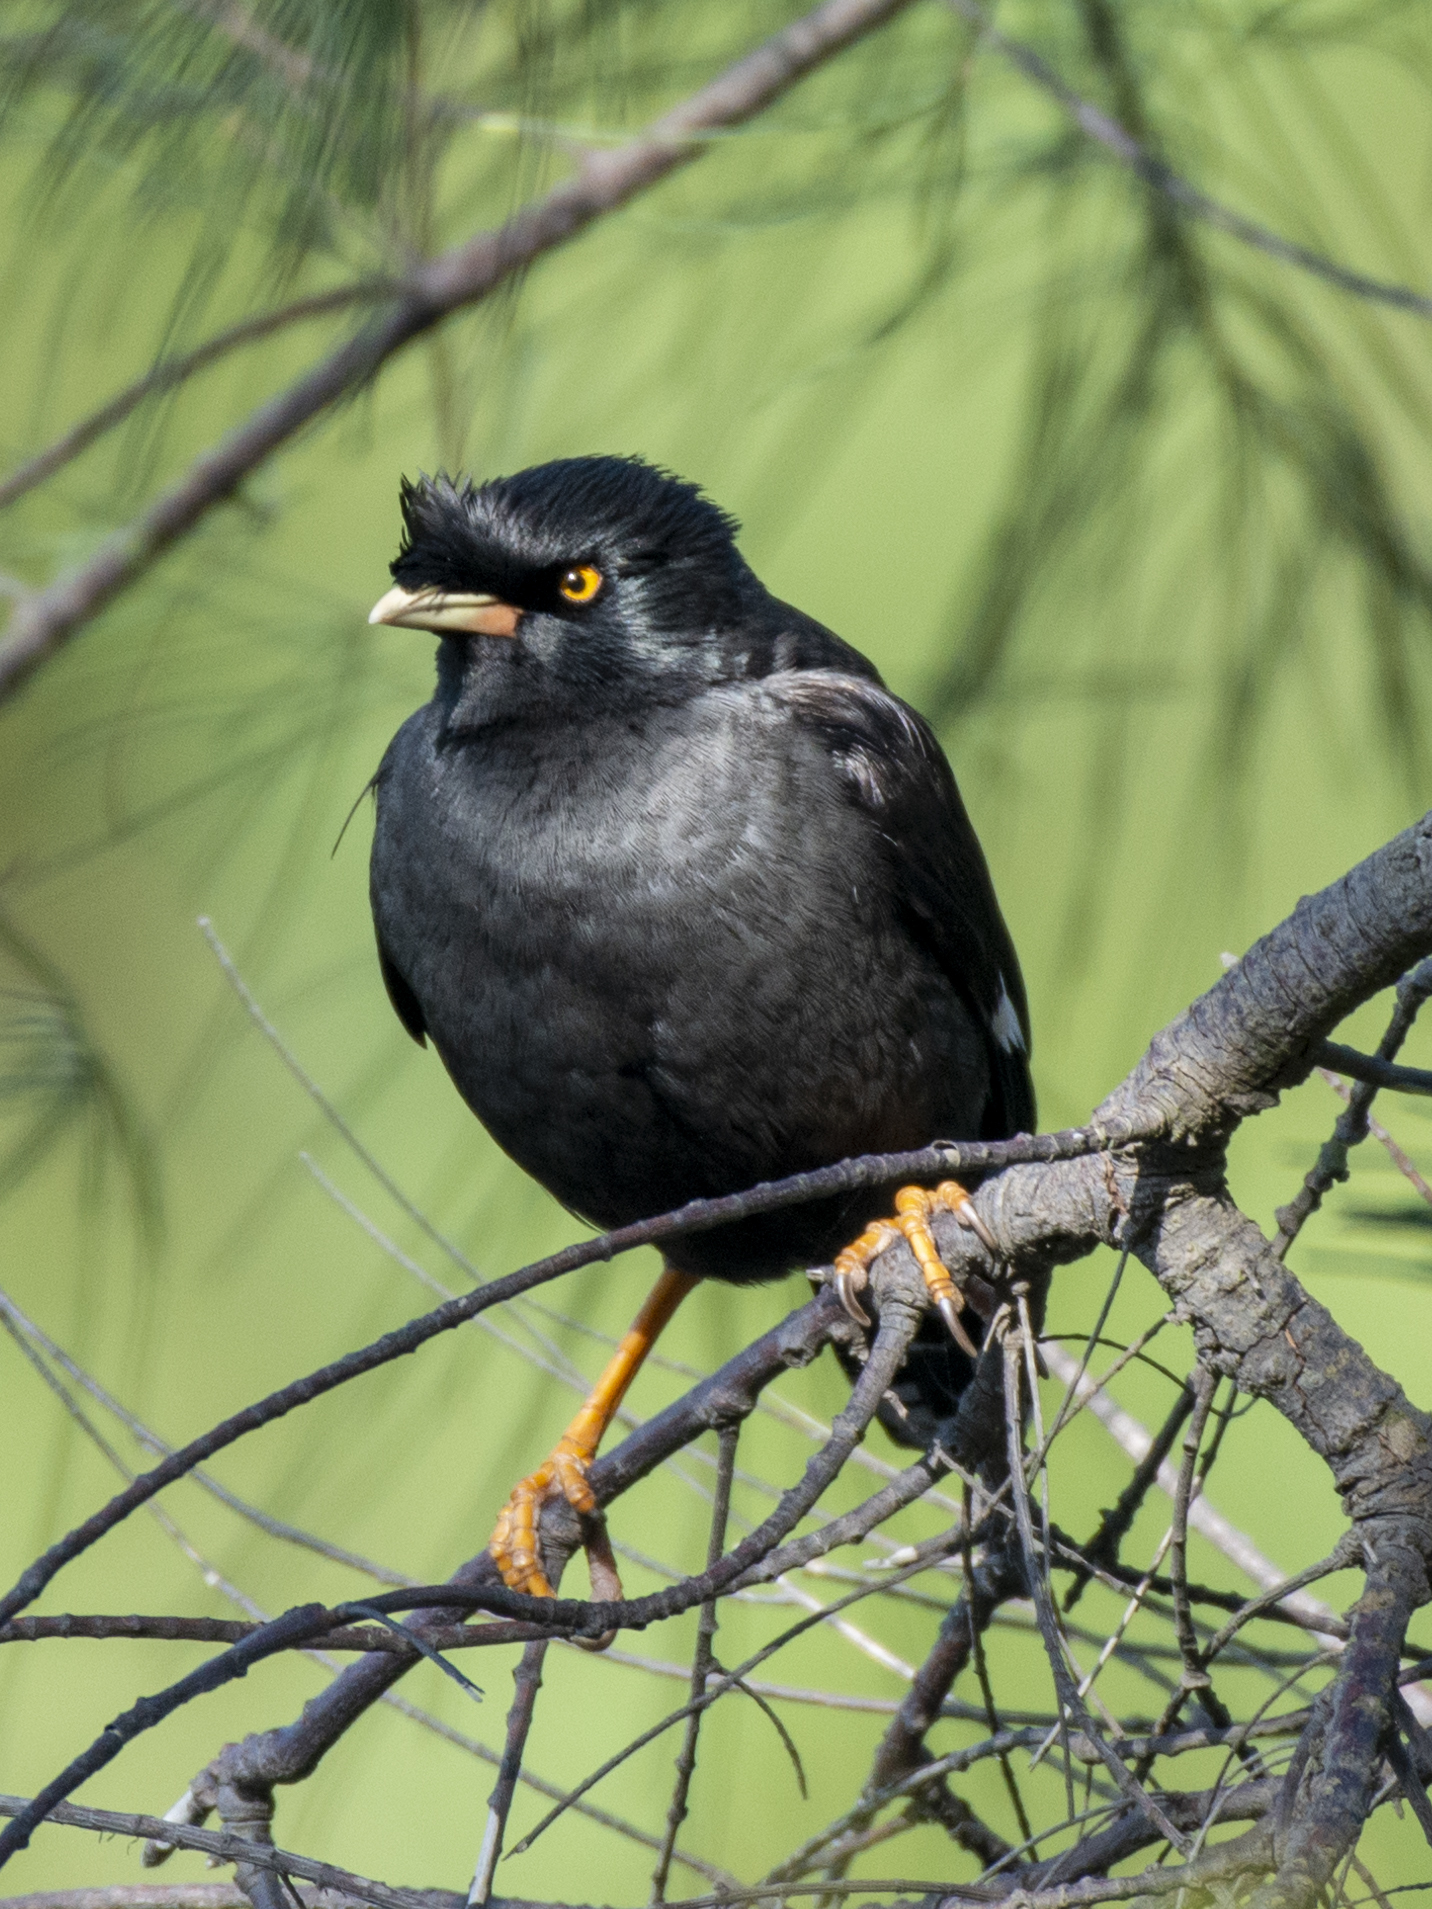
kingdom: Animalia
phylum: Chordata
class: Aves
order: Passeriformes
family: Sturnidae
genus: Acridotheres
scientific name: Acridotheres cristatellus
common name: Crested myna
